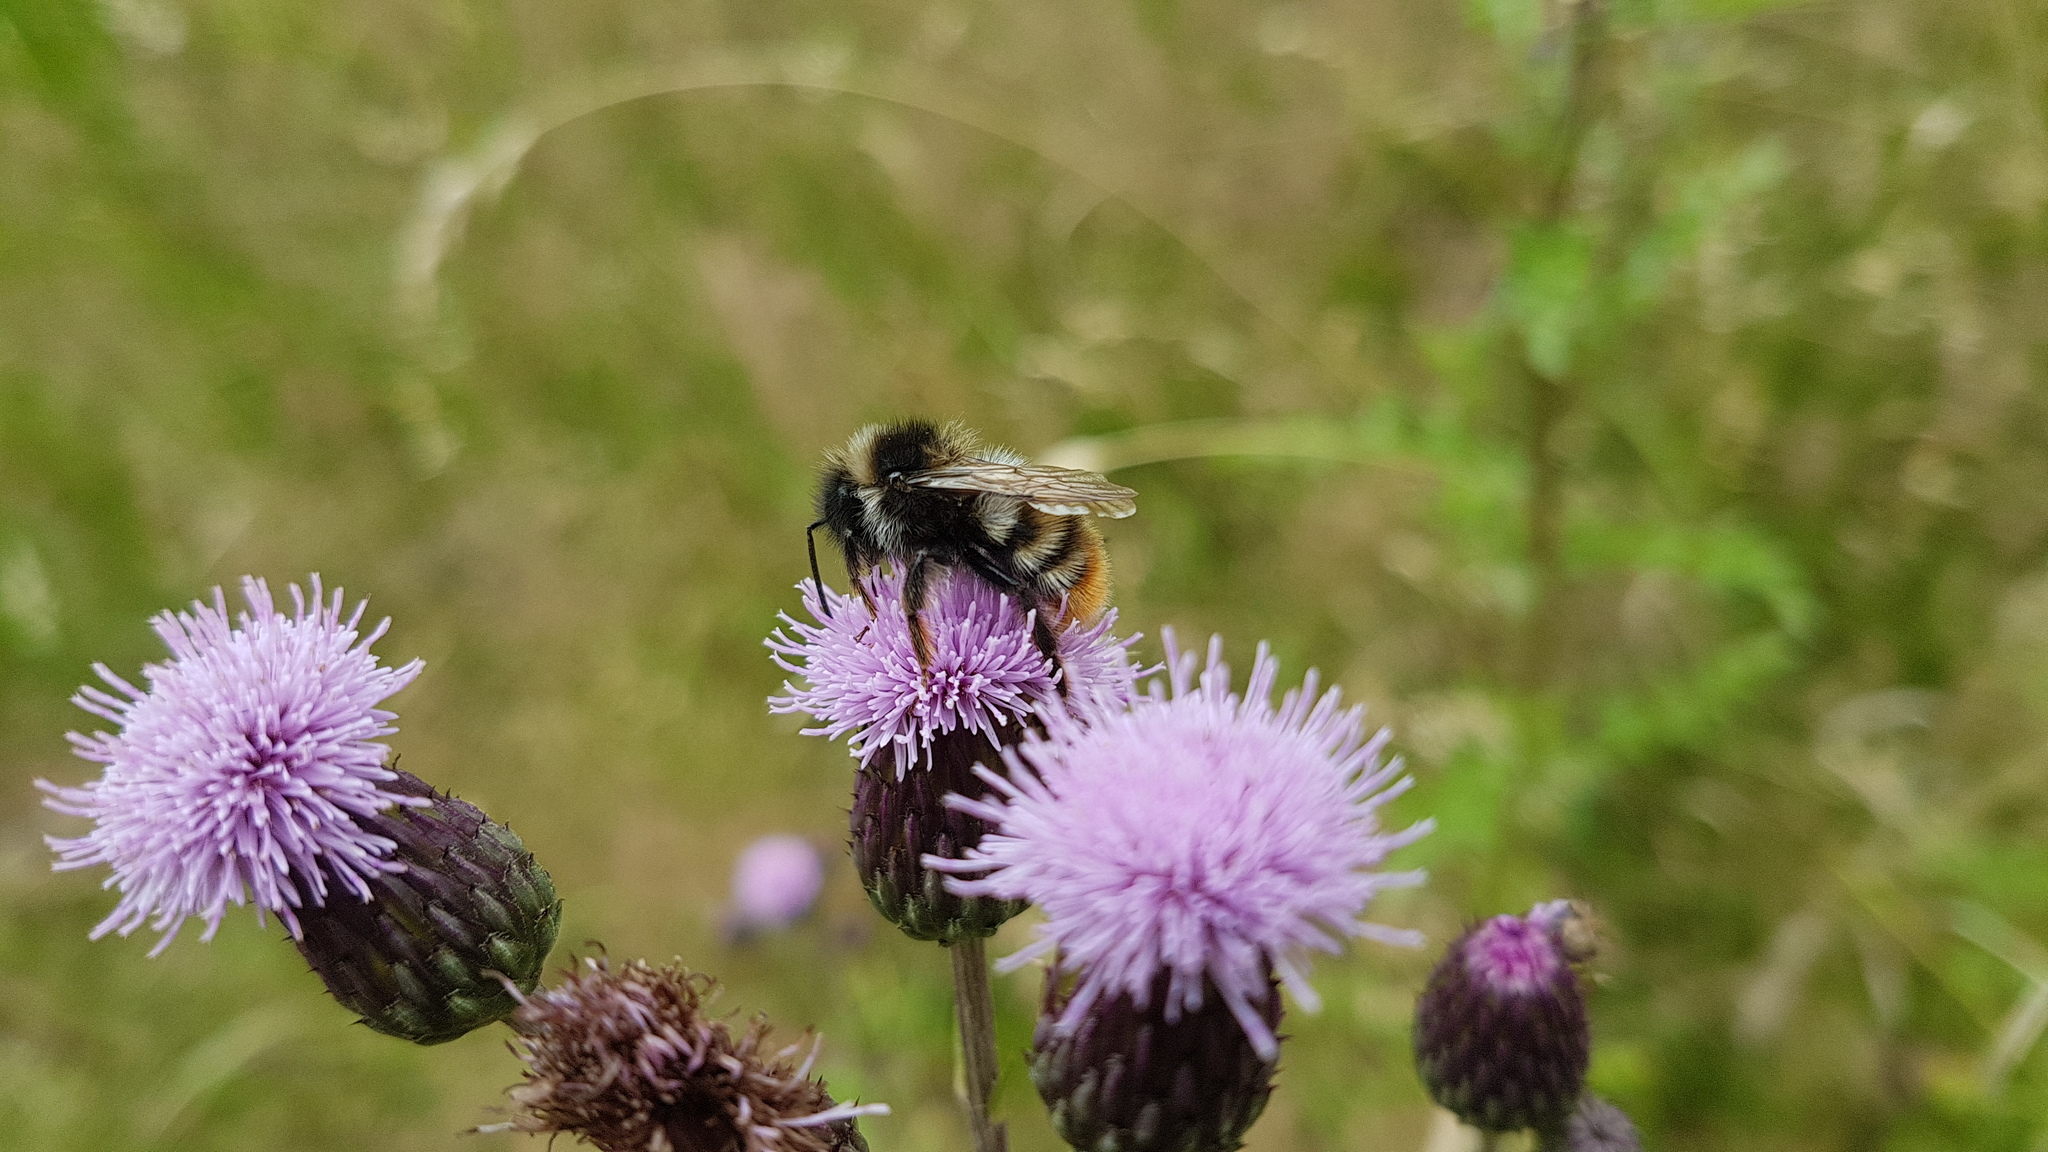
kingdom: Animalia
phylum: Arthropoda
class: Insecta
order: Hymenoptera
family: Apidae
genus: Bombus
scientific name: Bombus rupestris
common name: Hill cuckoo-bee
